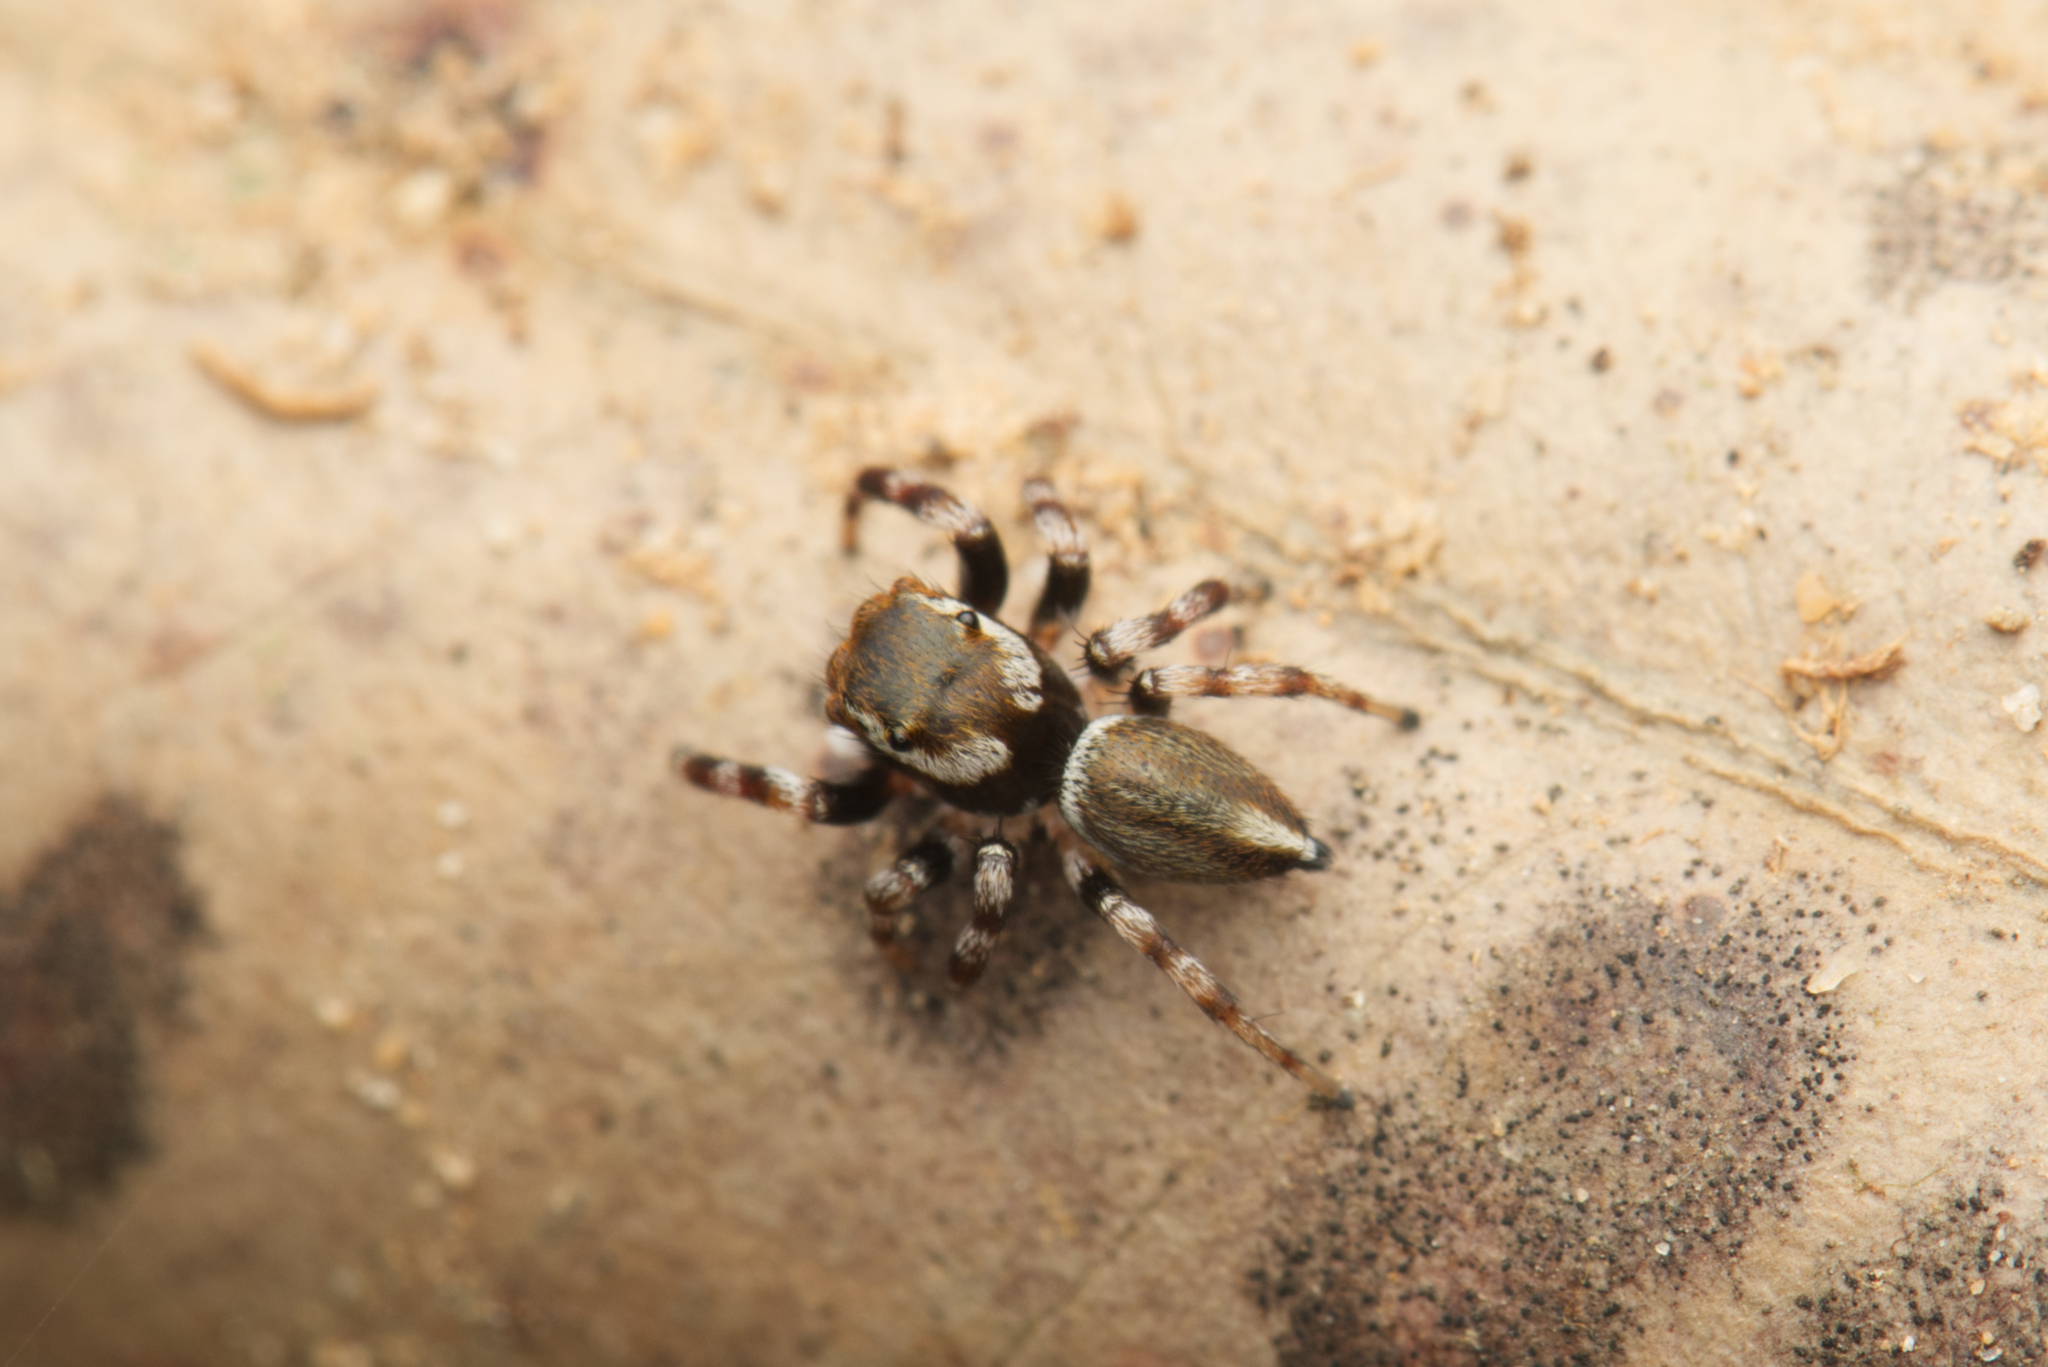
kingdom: Animalia
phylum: Arthropoda
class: Arachnida
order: Araneae
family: Salticidae
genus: Maratus
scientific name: Maratus scutulatus
